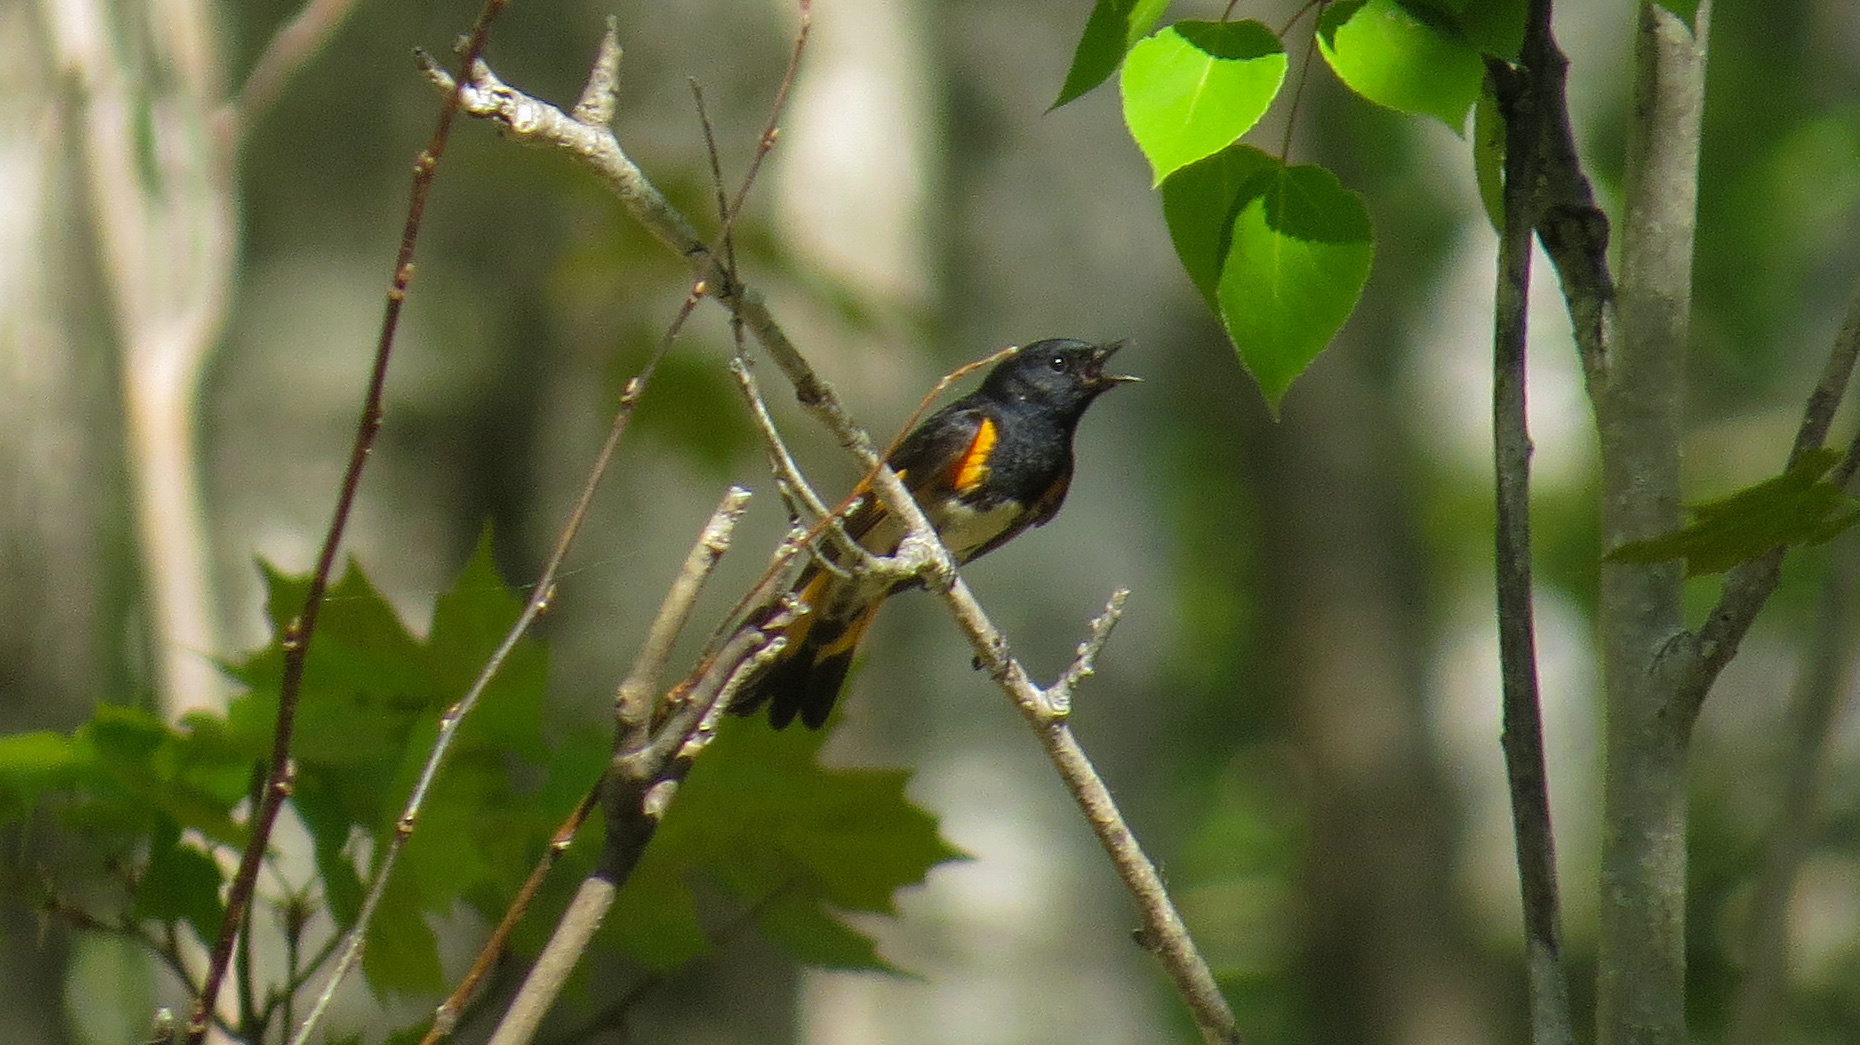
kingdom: Animalia
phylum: Chordata
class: Aves
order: Passeriformes
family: Parulidae
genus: Setophaga
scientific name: Setophaga ruticilla
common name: American redstart
